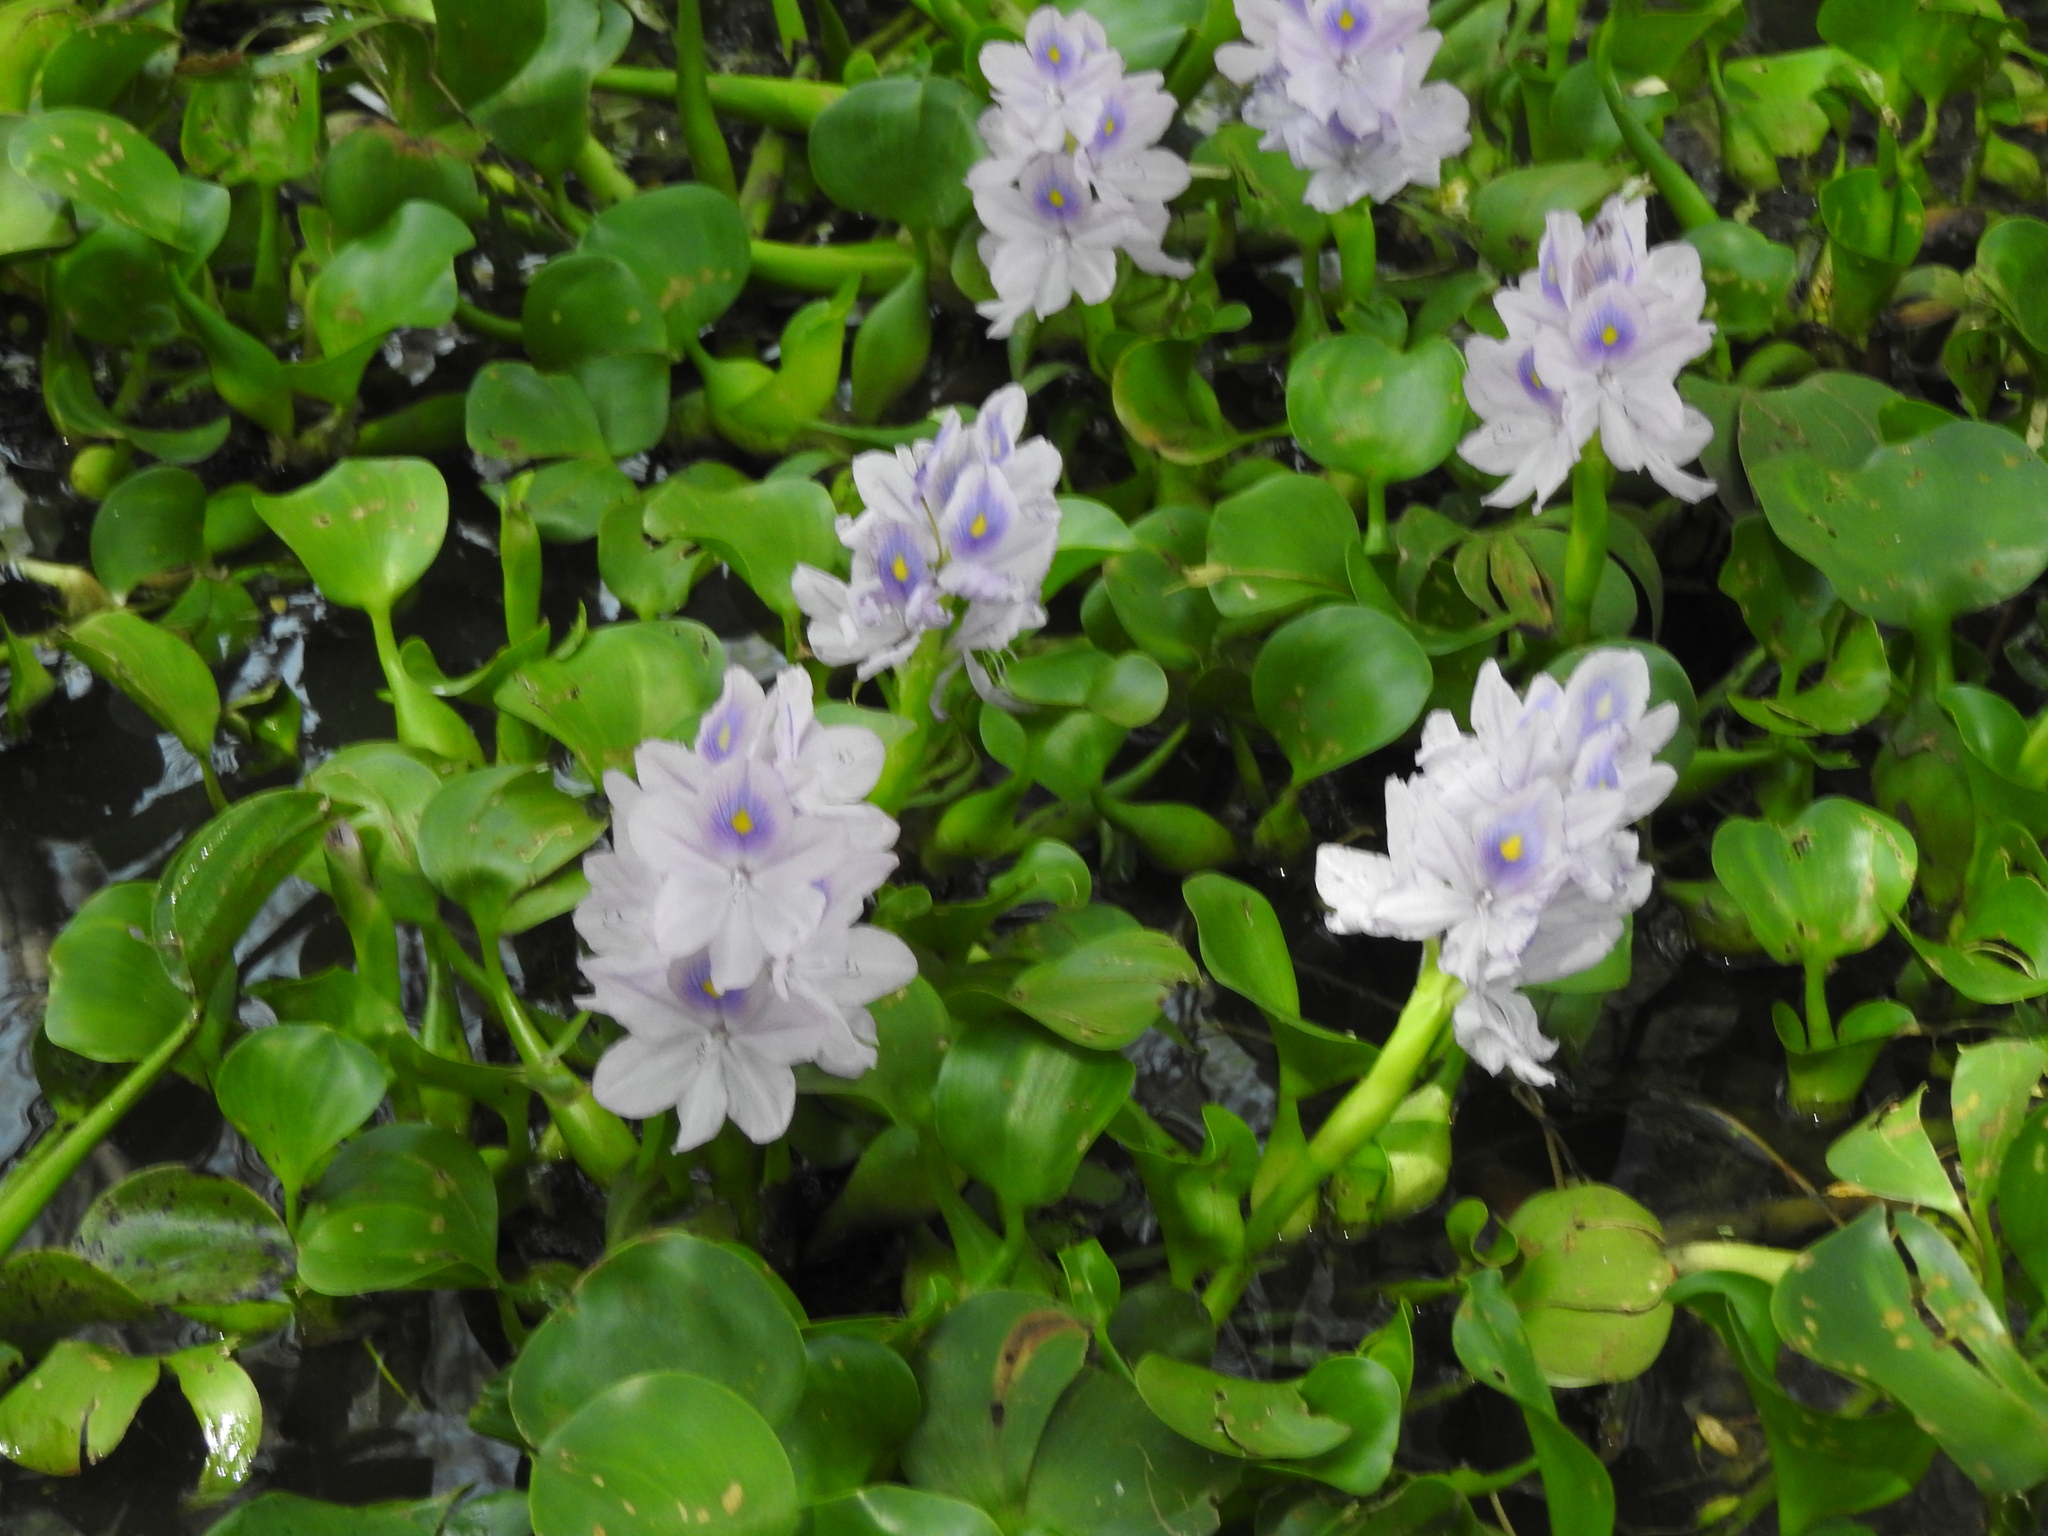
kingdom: Plantae
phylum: Tracheophyta
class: Liliopsida
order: Commelinales
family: Pontederiaceae
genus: Pontederia
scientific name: Pontederia crassipes
